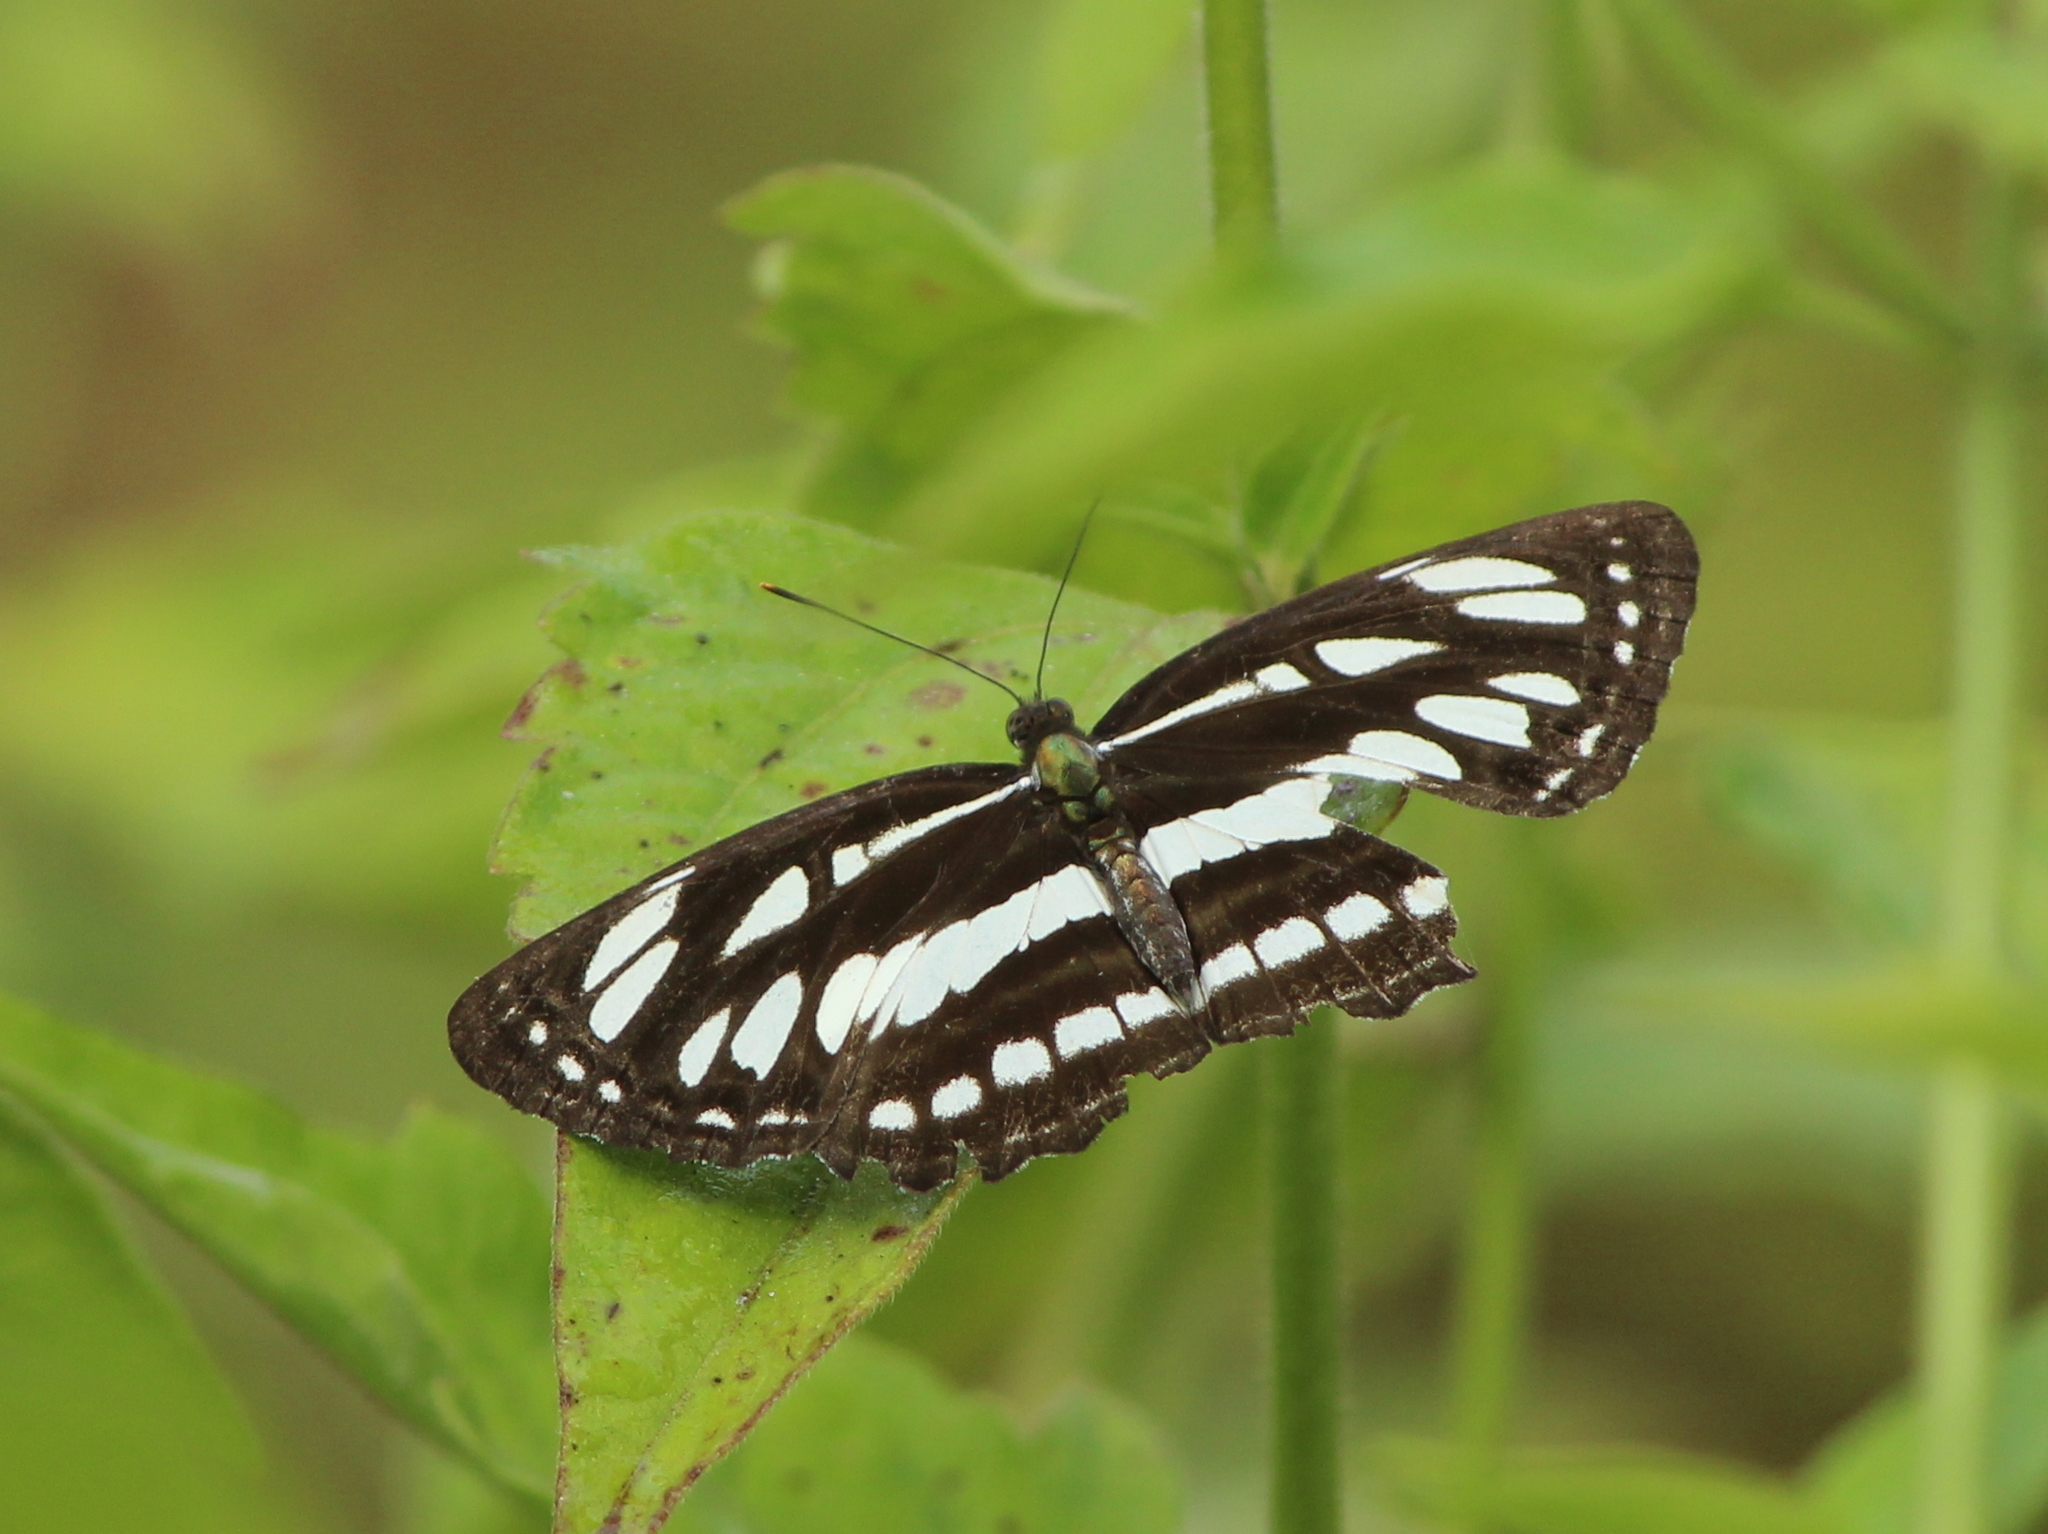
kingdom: Animalia
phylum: Arthropoda
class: Insecta
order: Lepidoptera
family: Nymphalidae
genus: Neptis
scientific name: Neptis hylas
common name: Common sailer
